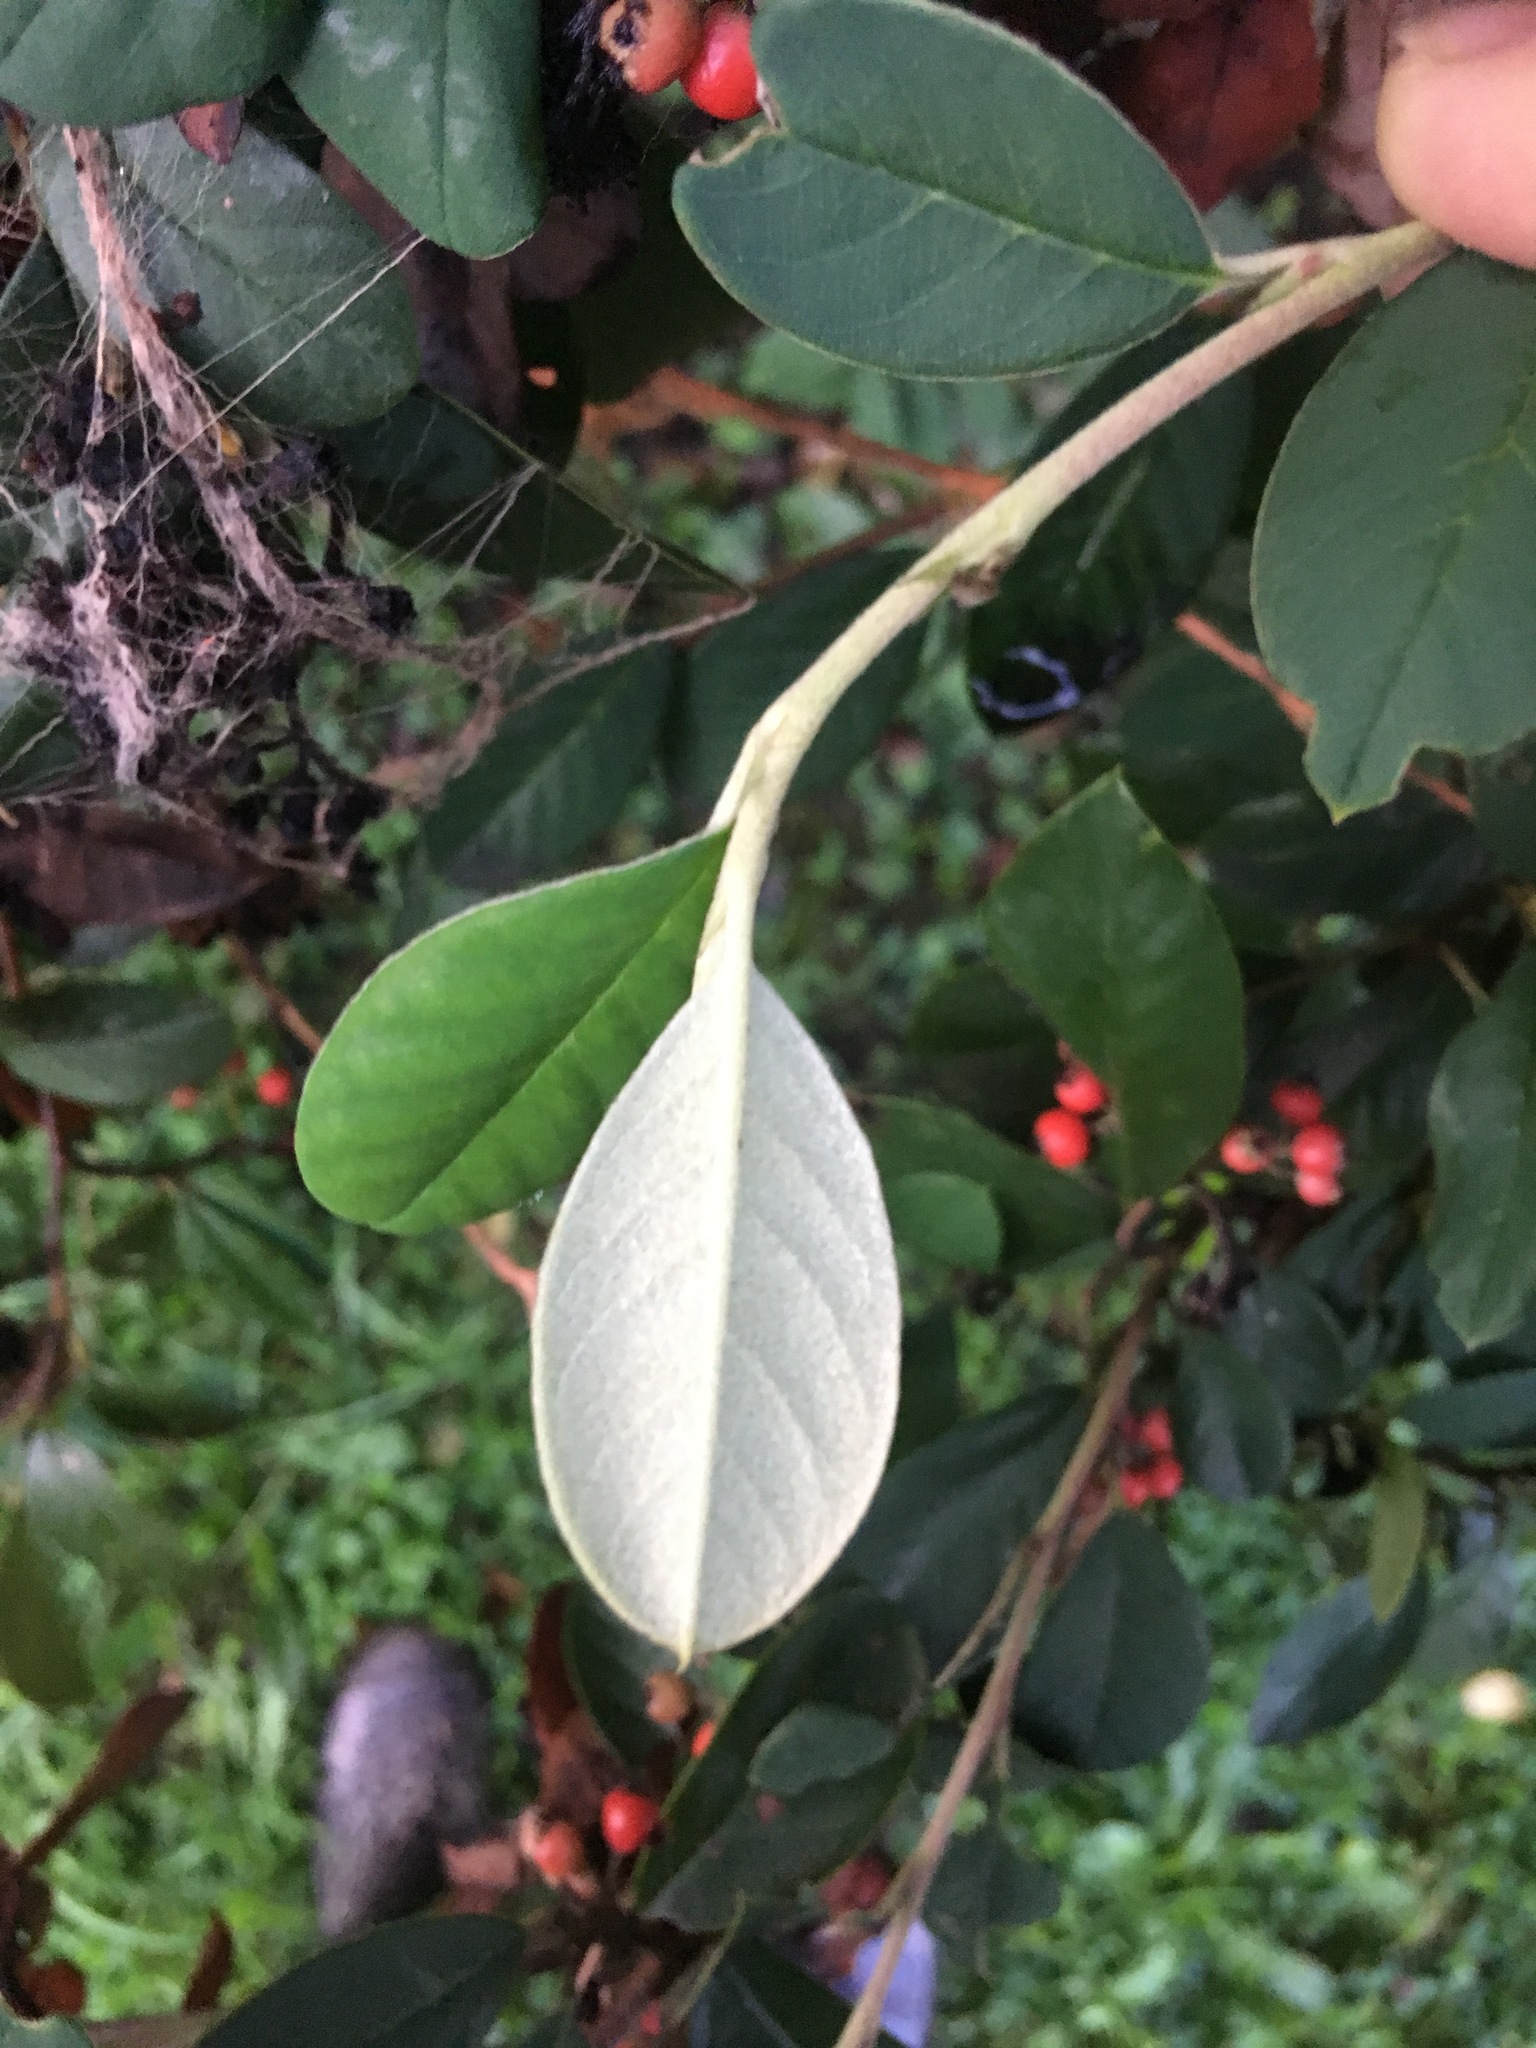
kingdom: Plantae
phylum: Tracheophyta
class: Magnoliopsida
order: Rosales
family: Rosaceae
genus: Cotoneaster
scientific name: Cotoneaster glaucophyllus
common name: Glaucous cotoneaster
